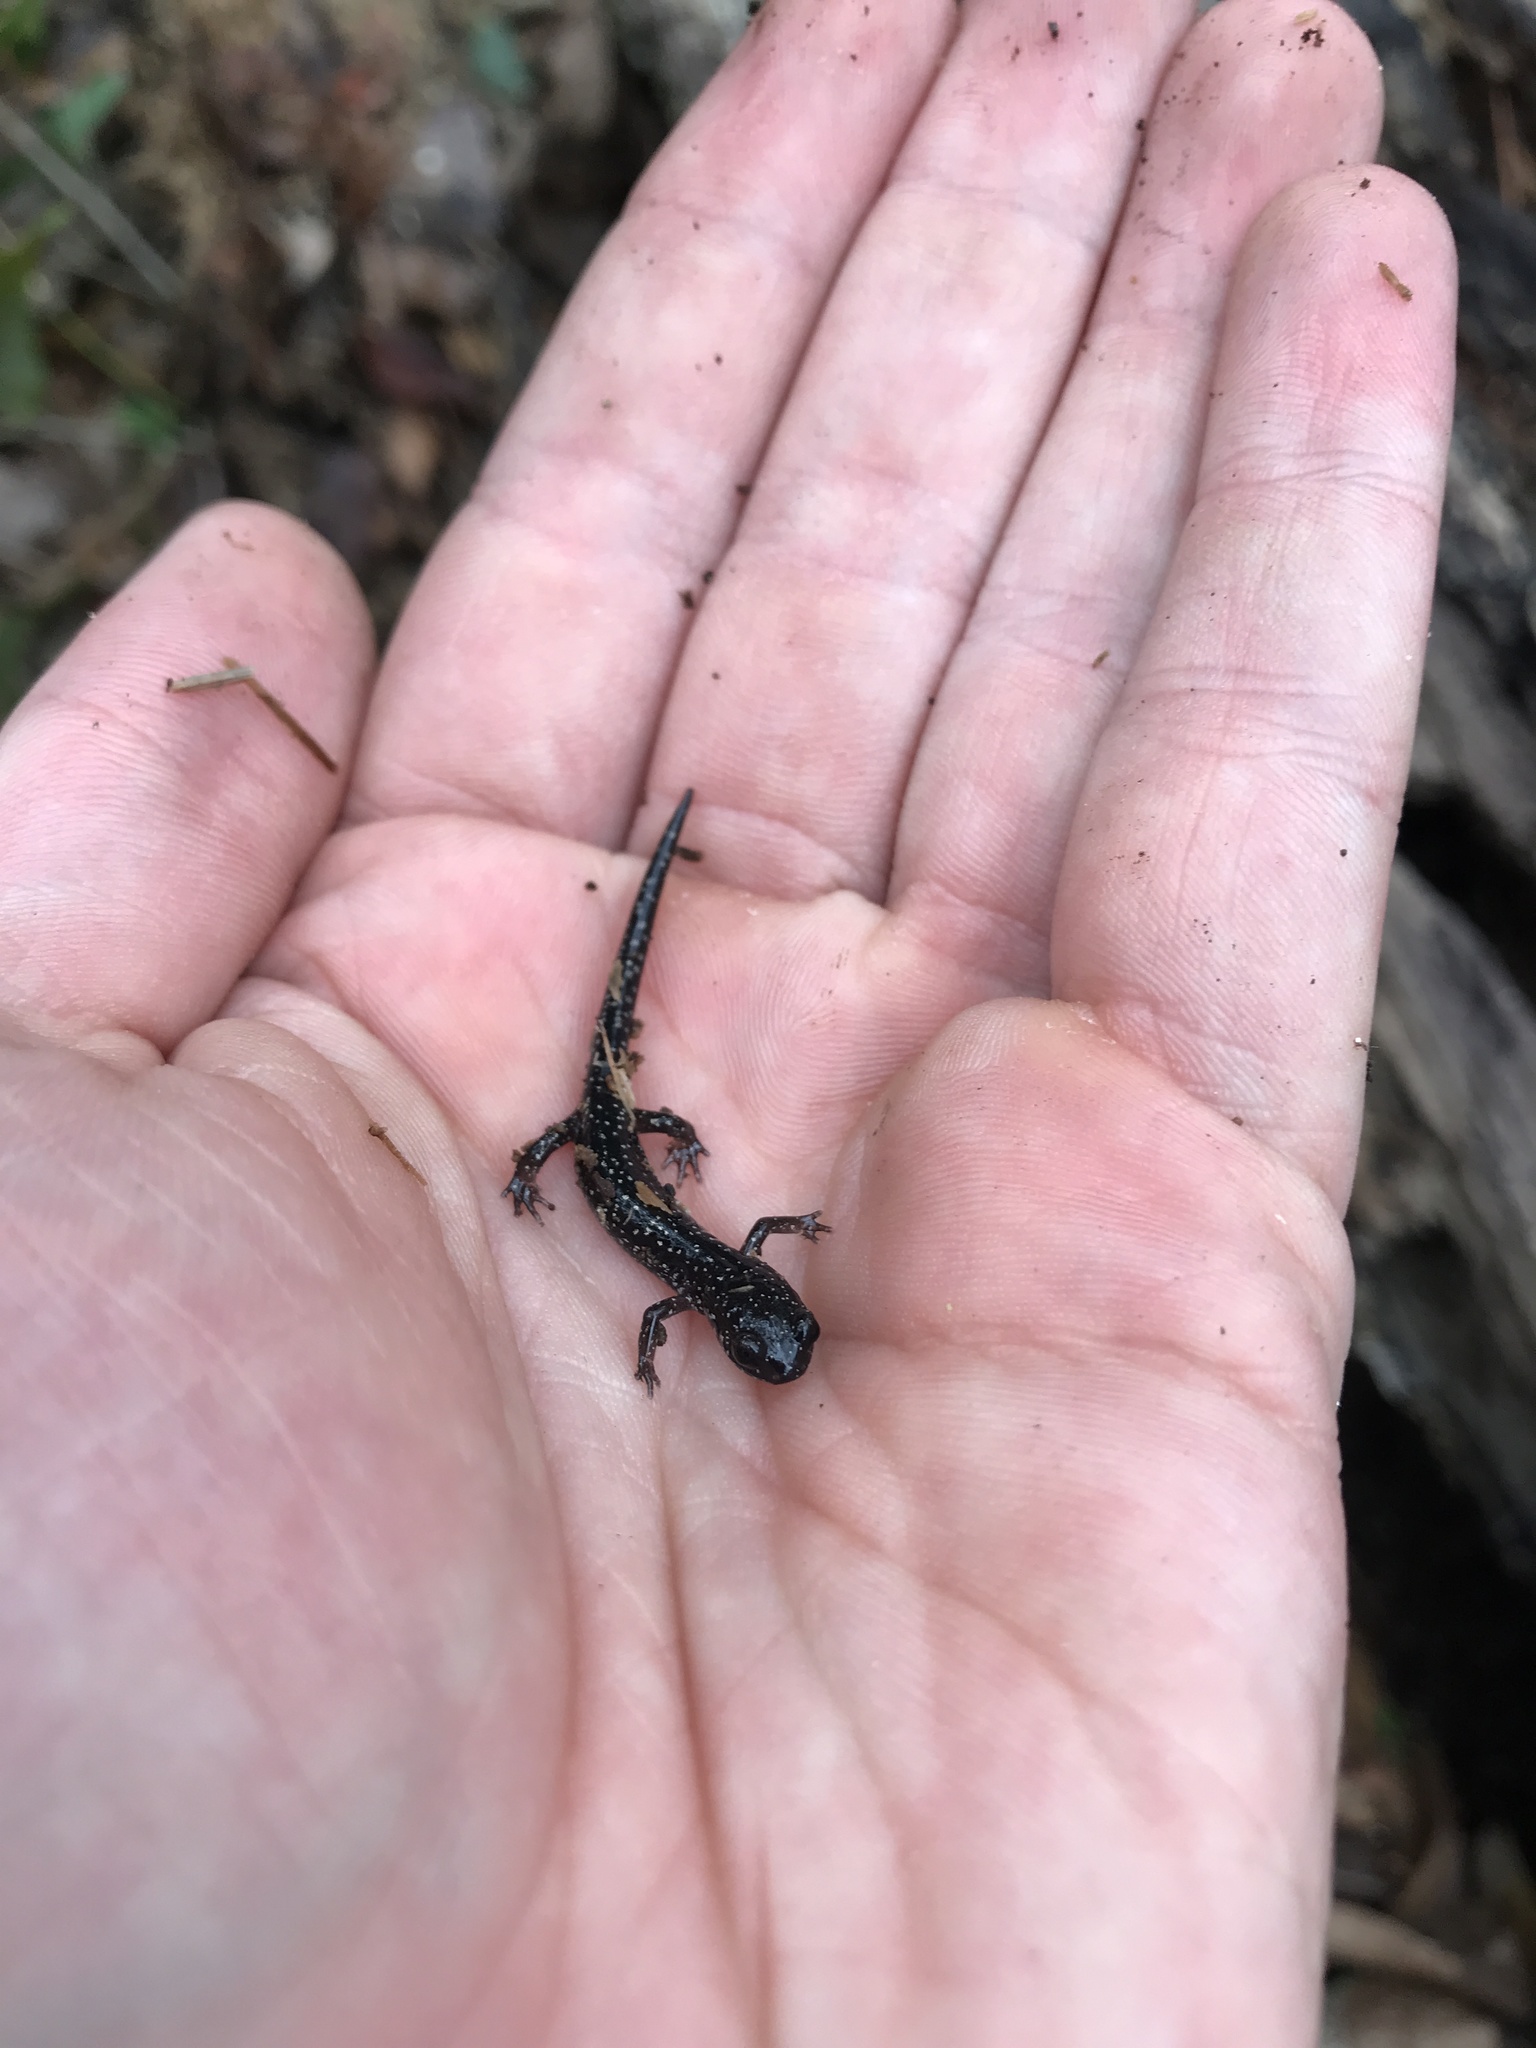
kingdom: Animalia
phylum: Chordata
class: Amphibia
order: Caudata
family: Plethodontidae
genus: Plethodon
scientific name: Plethodon grobmani
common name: Southeastern slimy salamander
